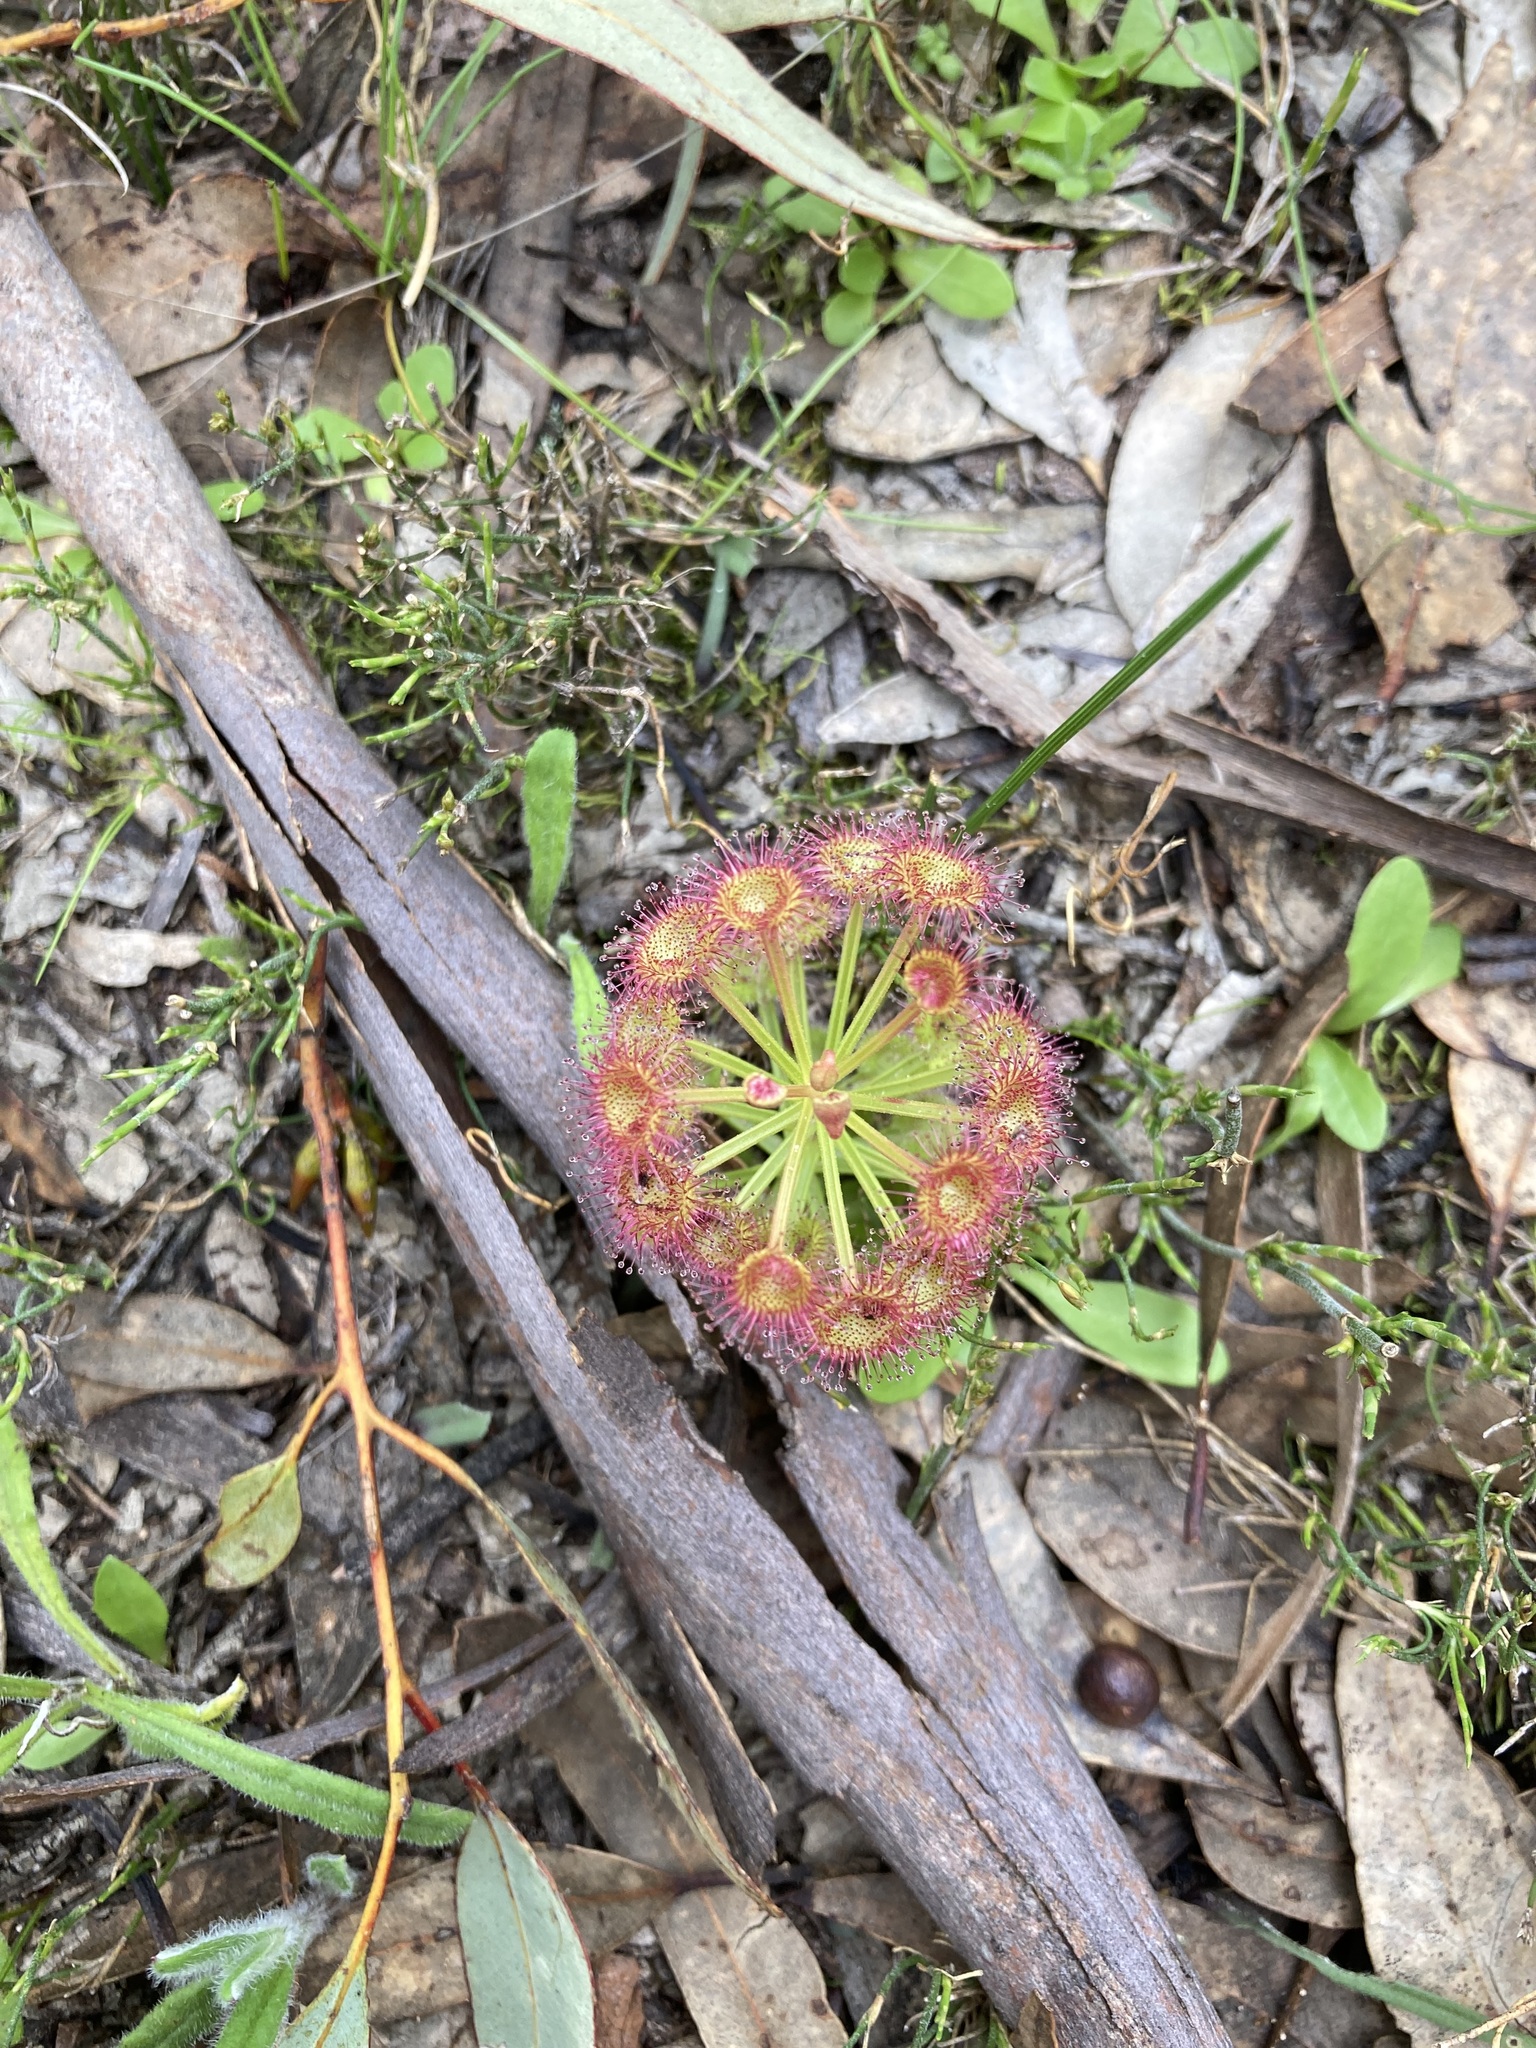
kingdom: Plantae
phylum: Tracheophyta
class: Magnoliopsida
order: Caryophyllales
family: Droseraceae
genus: Drosera
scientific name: Drosera stolonifera
